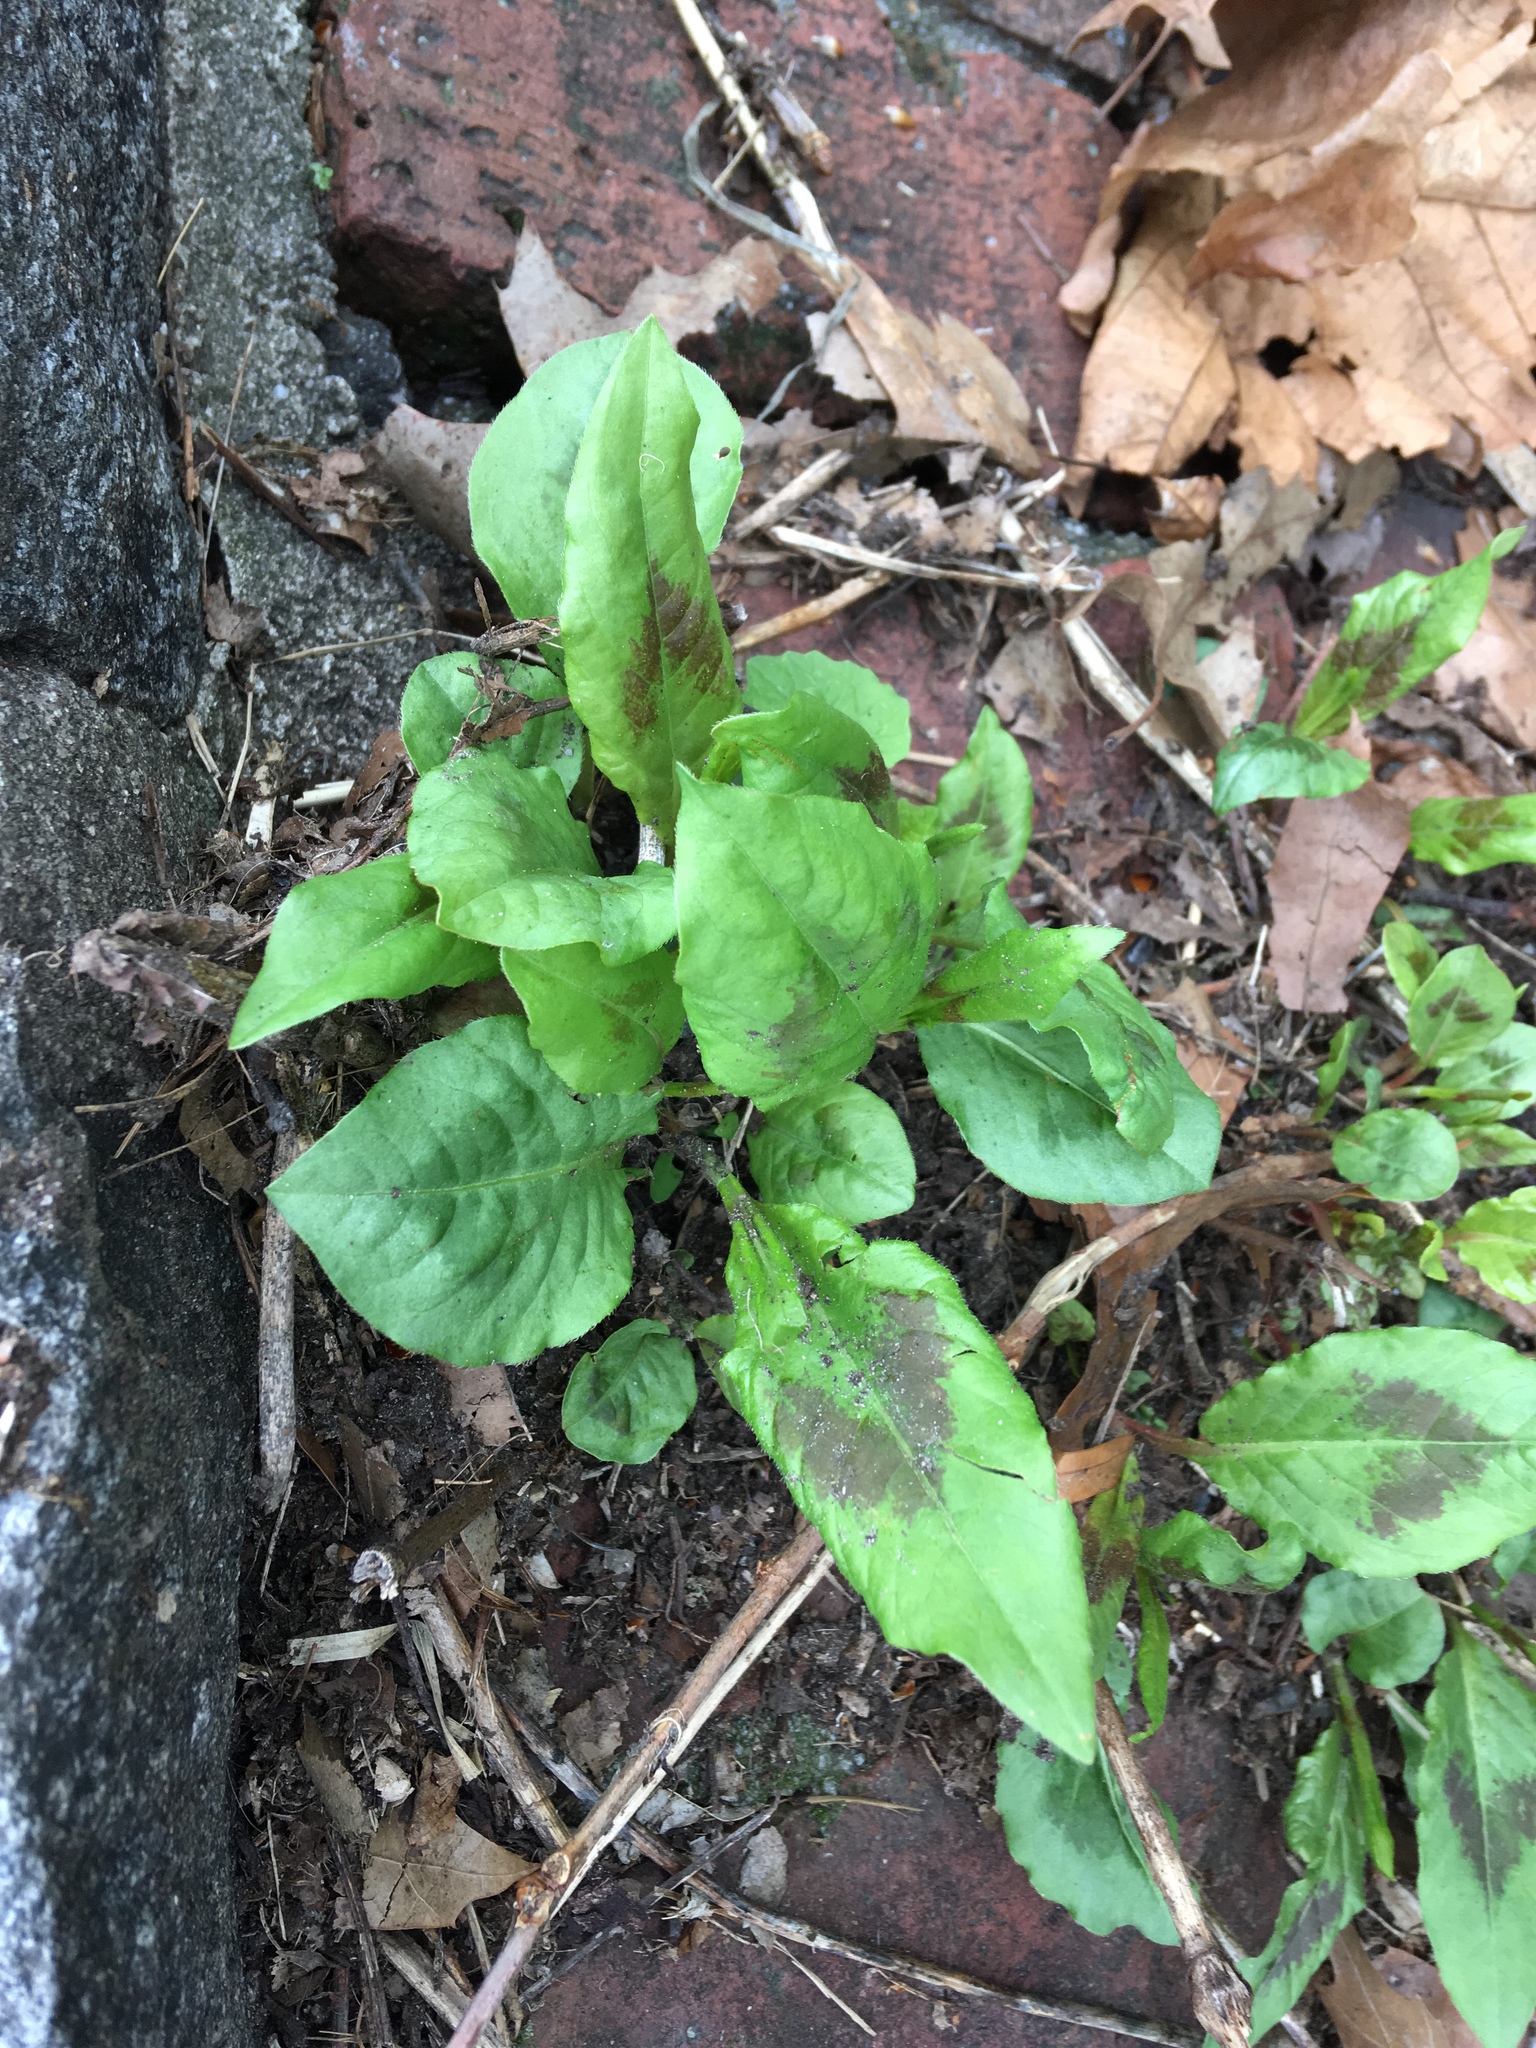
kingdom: Plantae
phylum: Tracheophyta
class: Magnoliopsida
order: Caryophyllales
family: Polygonaceae
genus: Persicaria
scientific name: Persicaria virginiana
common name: Jumpseed
